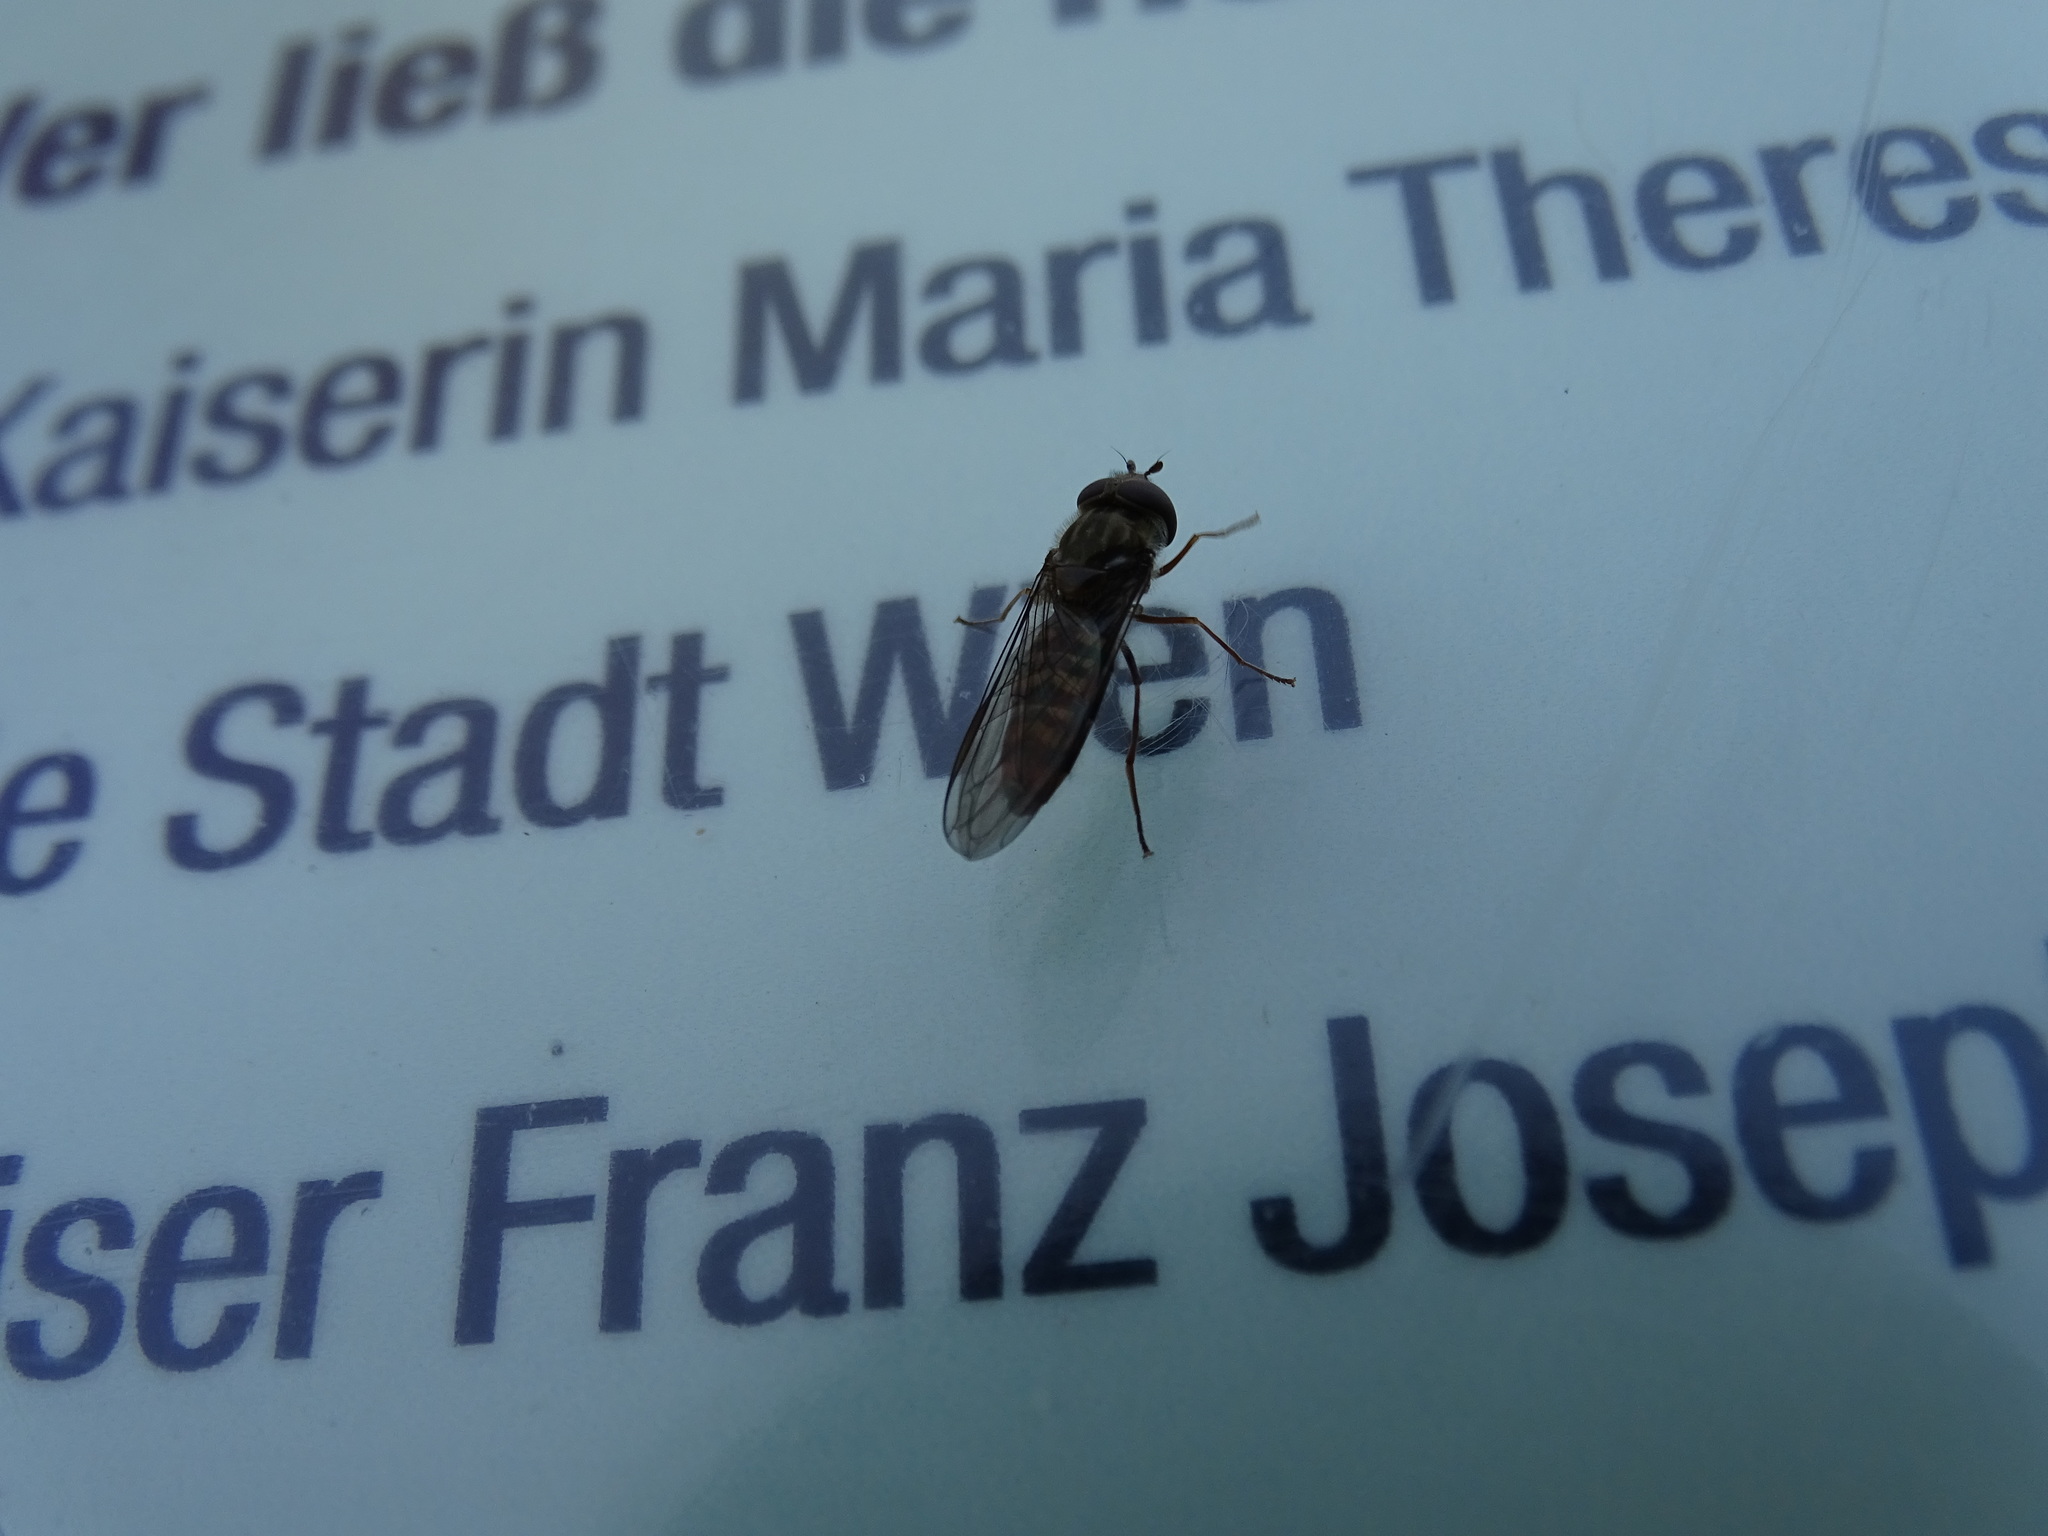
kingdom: Animalia
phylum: Arthropoda
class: Insecta
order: Diptera
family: Syrphidae
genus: Episyrphus
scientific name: Episyrphus balteatus
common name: Marmalade hoverfly
